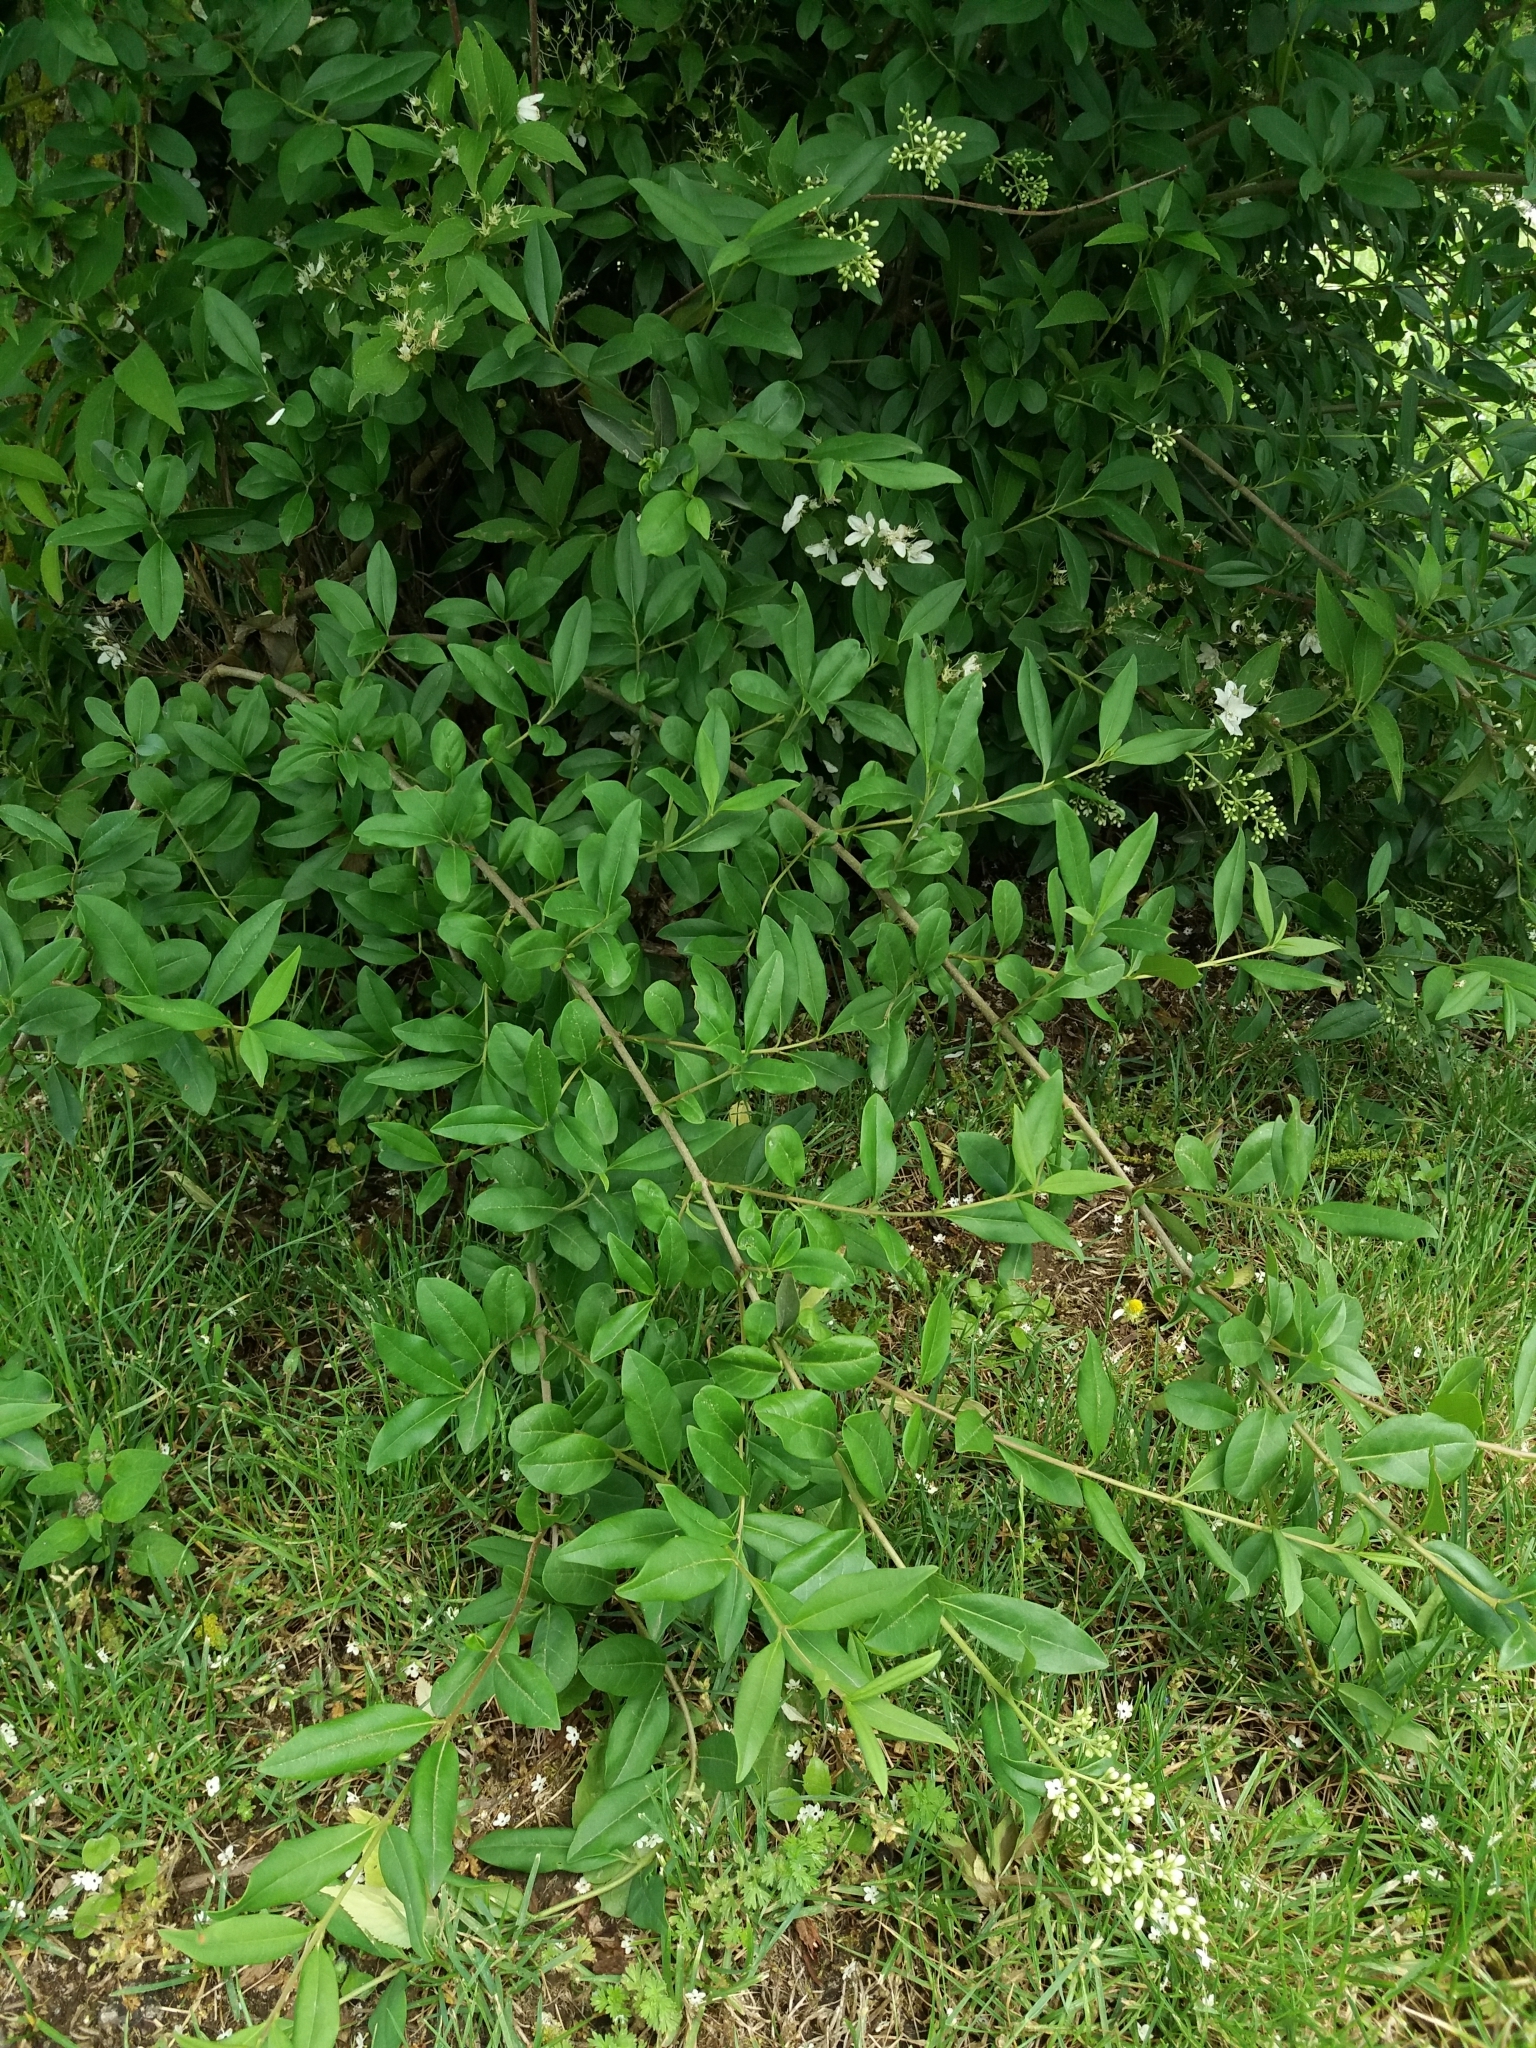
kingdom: Plantae
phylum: Tracheophyta
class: Magnoliopsida
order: Lamiales
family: Oleaceae
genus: Ligustrum
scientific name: Ligustrum vulgare
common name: Wild privet
